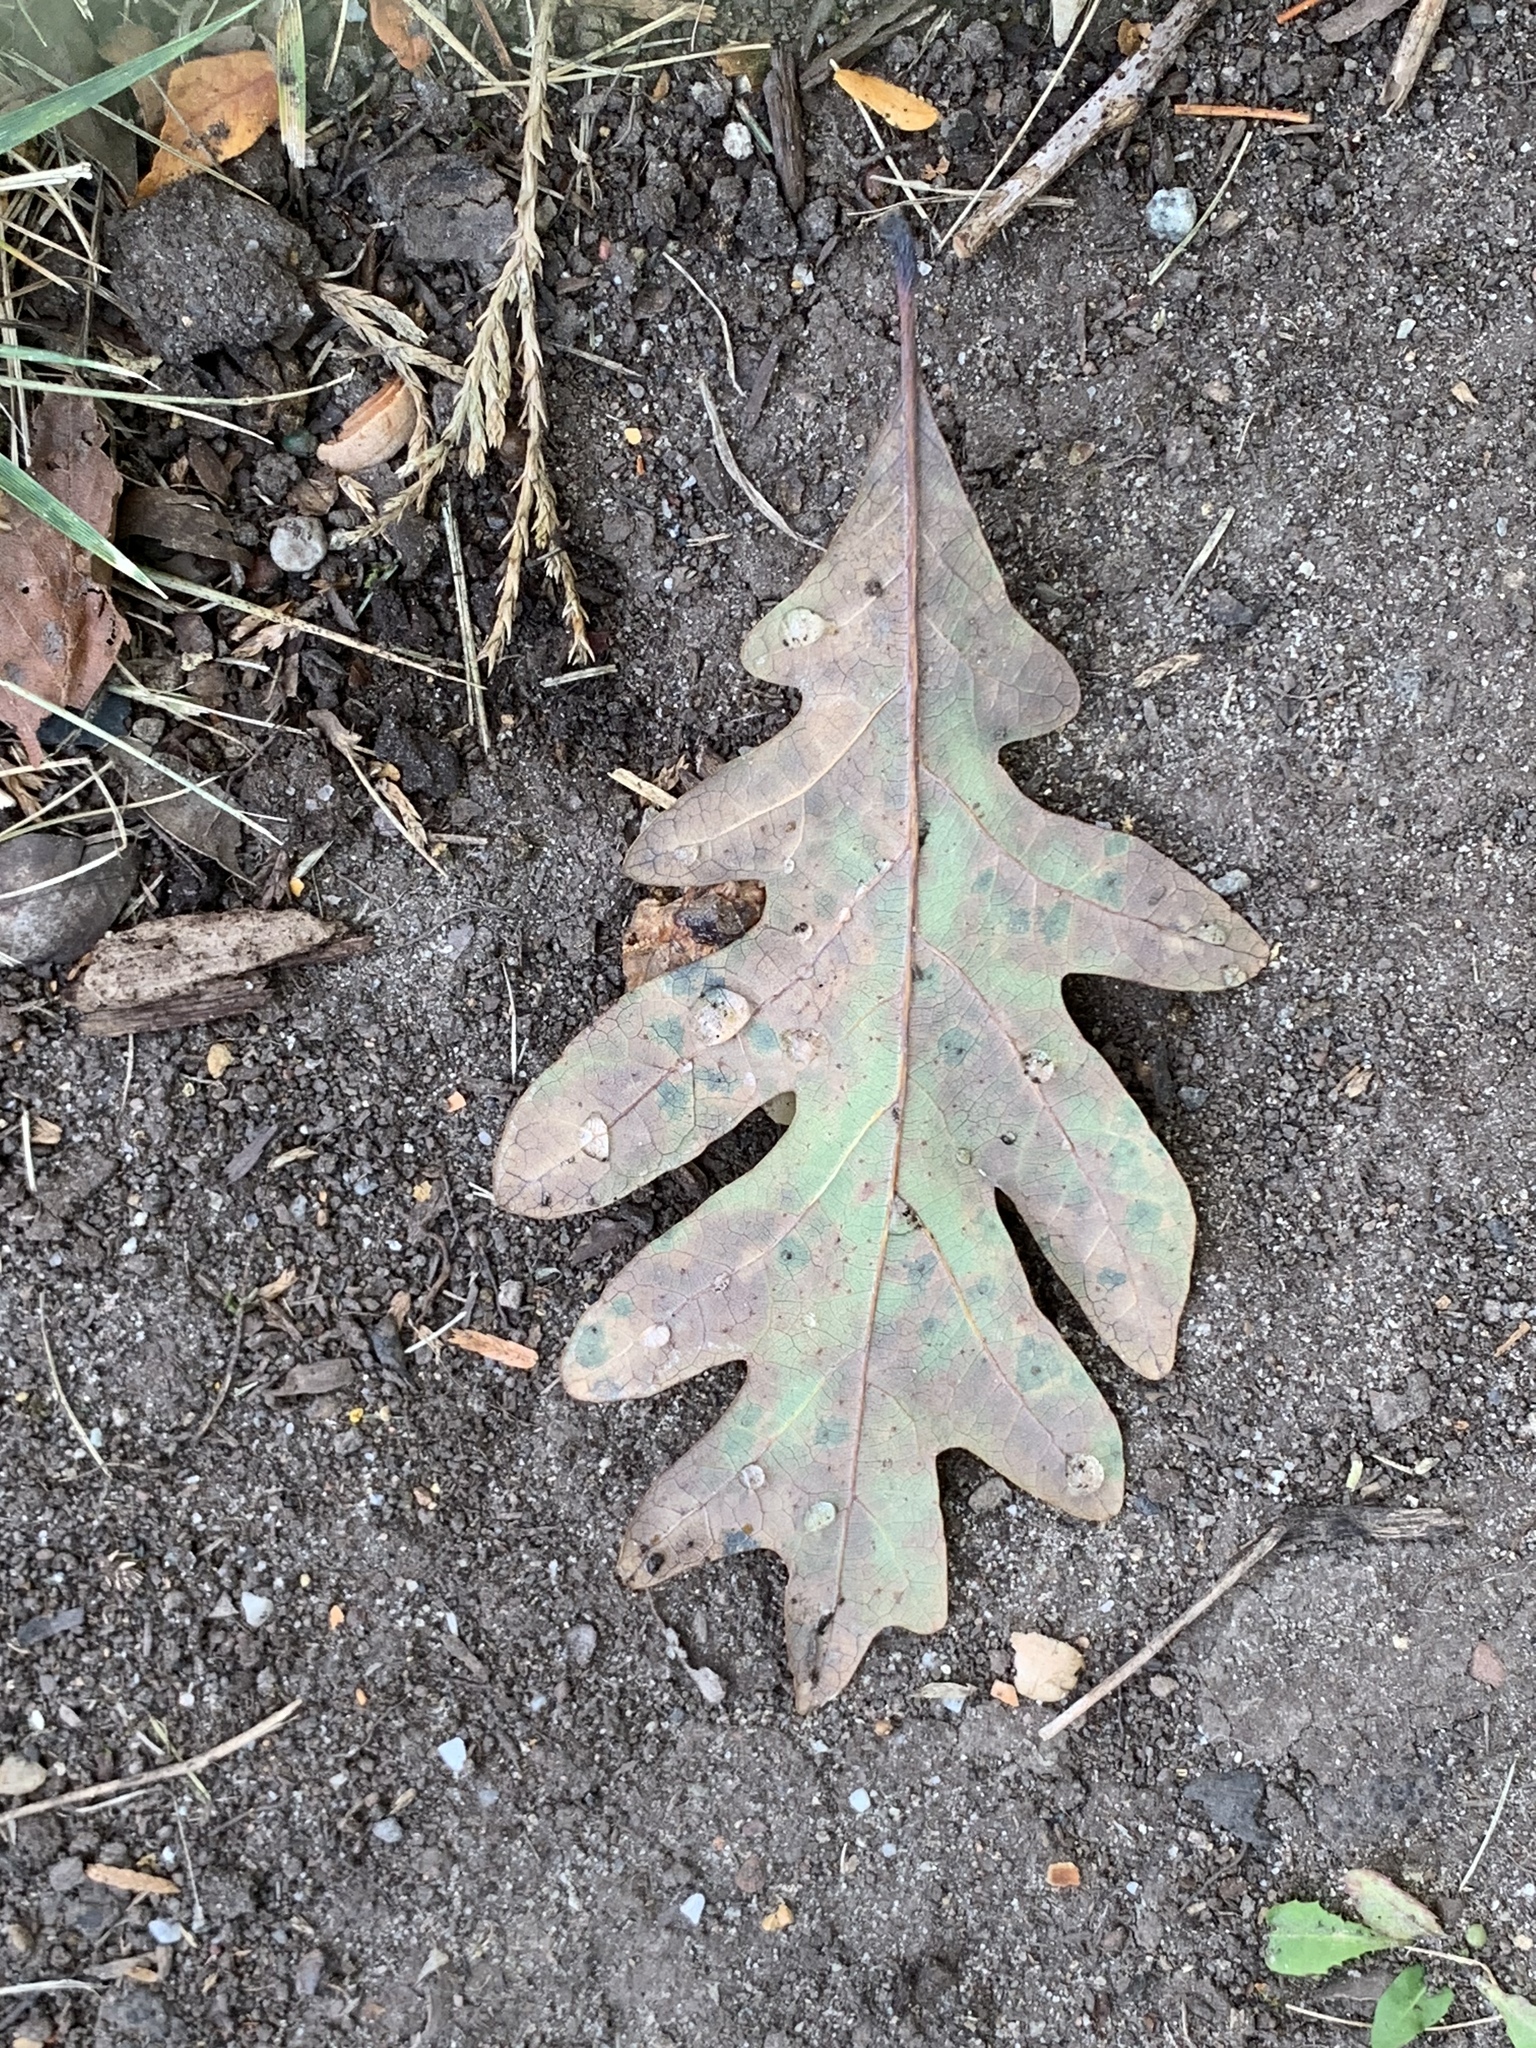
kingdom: Plantae
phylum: Tracheophyta
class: Magnoliopsida
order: Fagales
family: Fagaceae
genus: Quercus
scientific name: Quercus alba
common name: White oak
